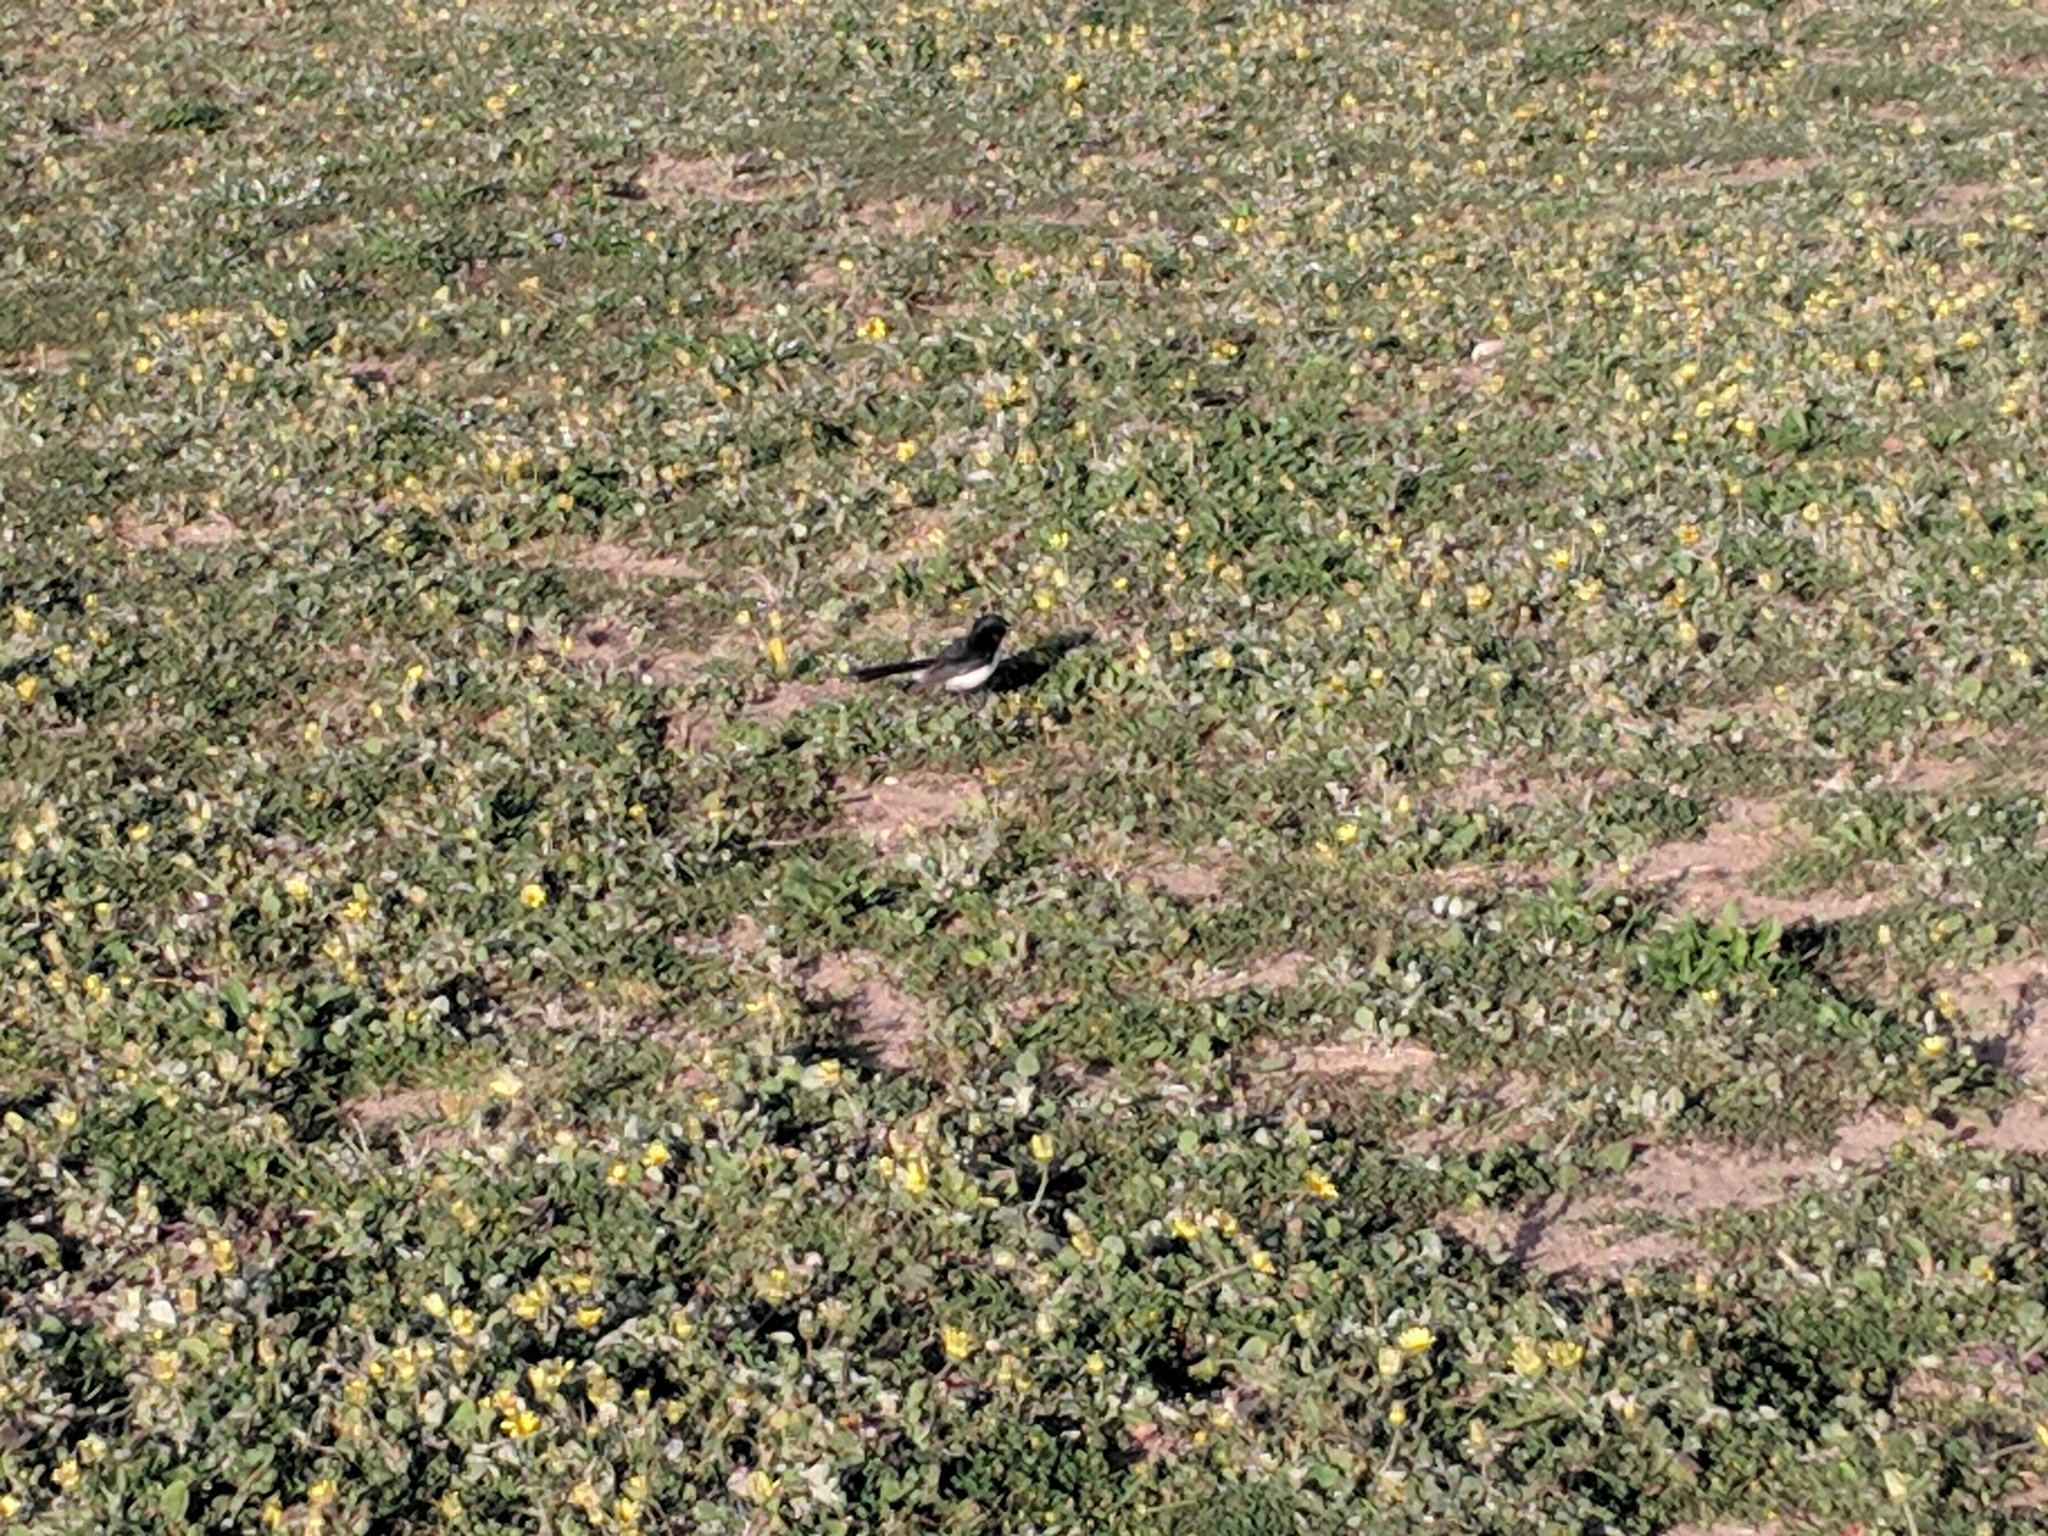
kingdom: Animalia
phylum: Chordata
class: Aves
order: Passeriformes
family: Rhipiduridae
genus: Rhipidura
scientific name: Rhipidura leucophrys
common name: Willie wagtail
